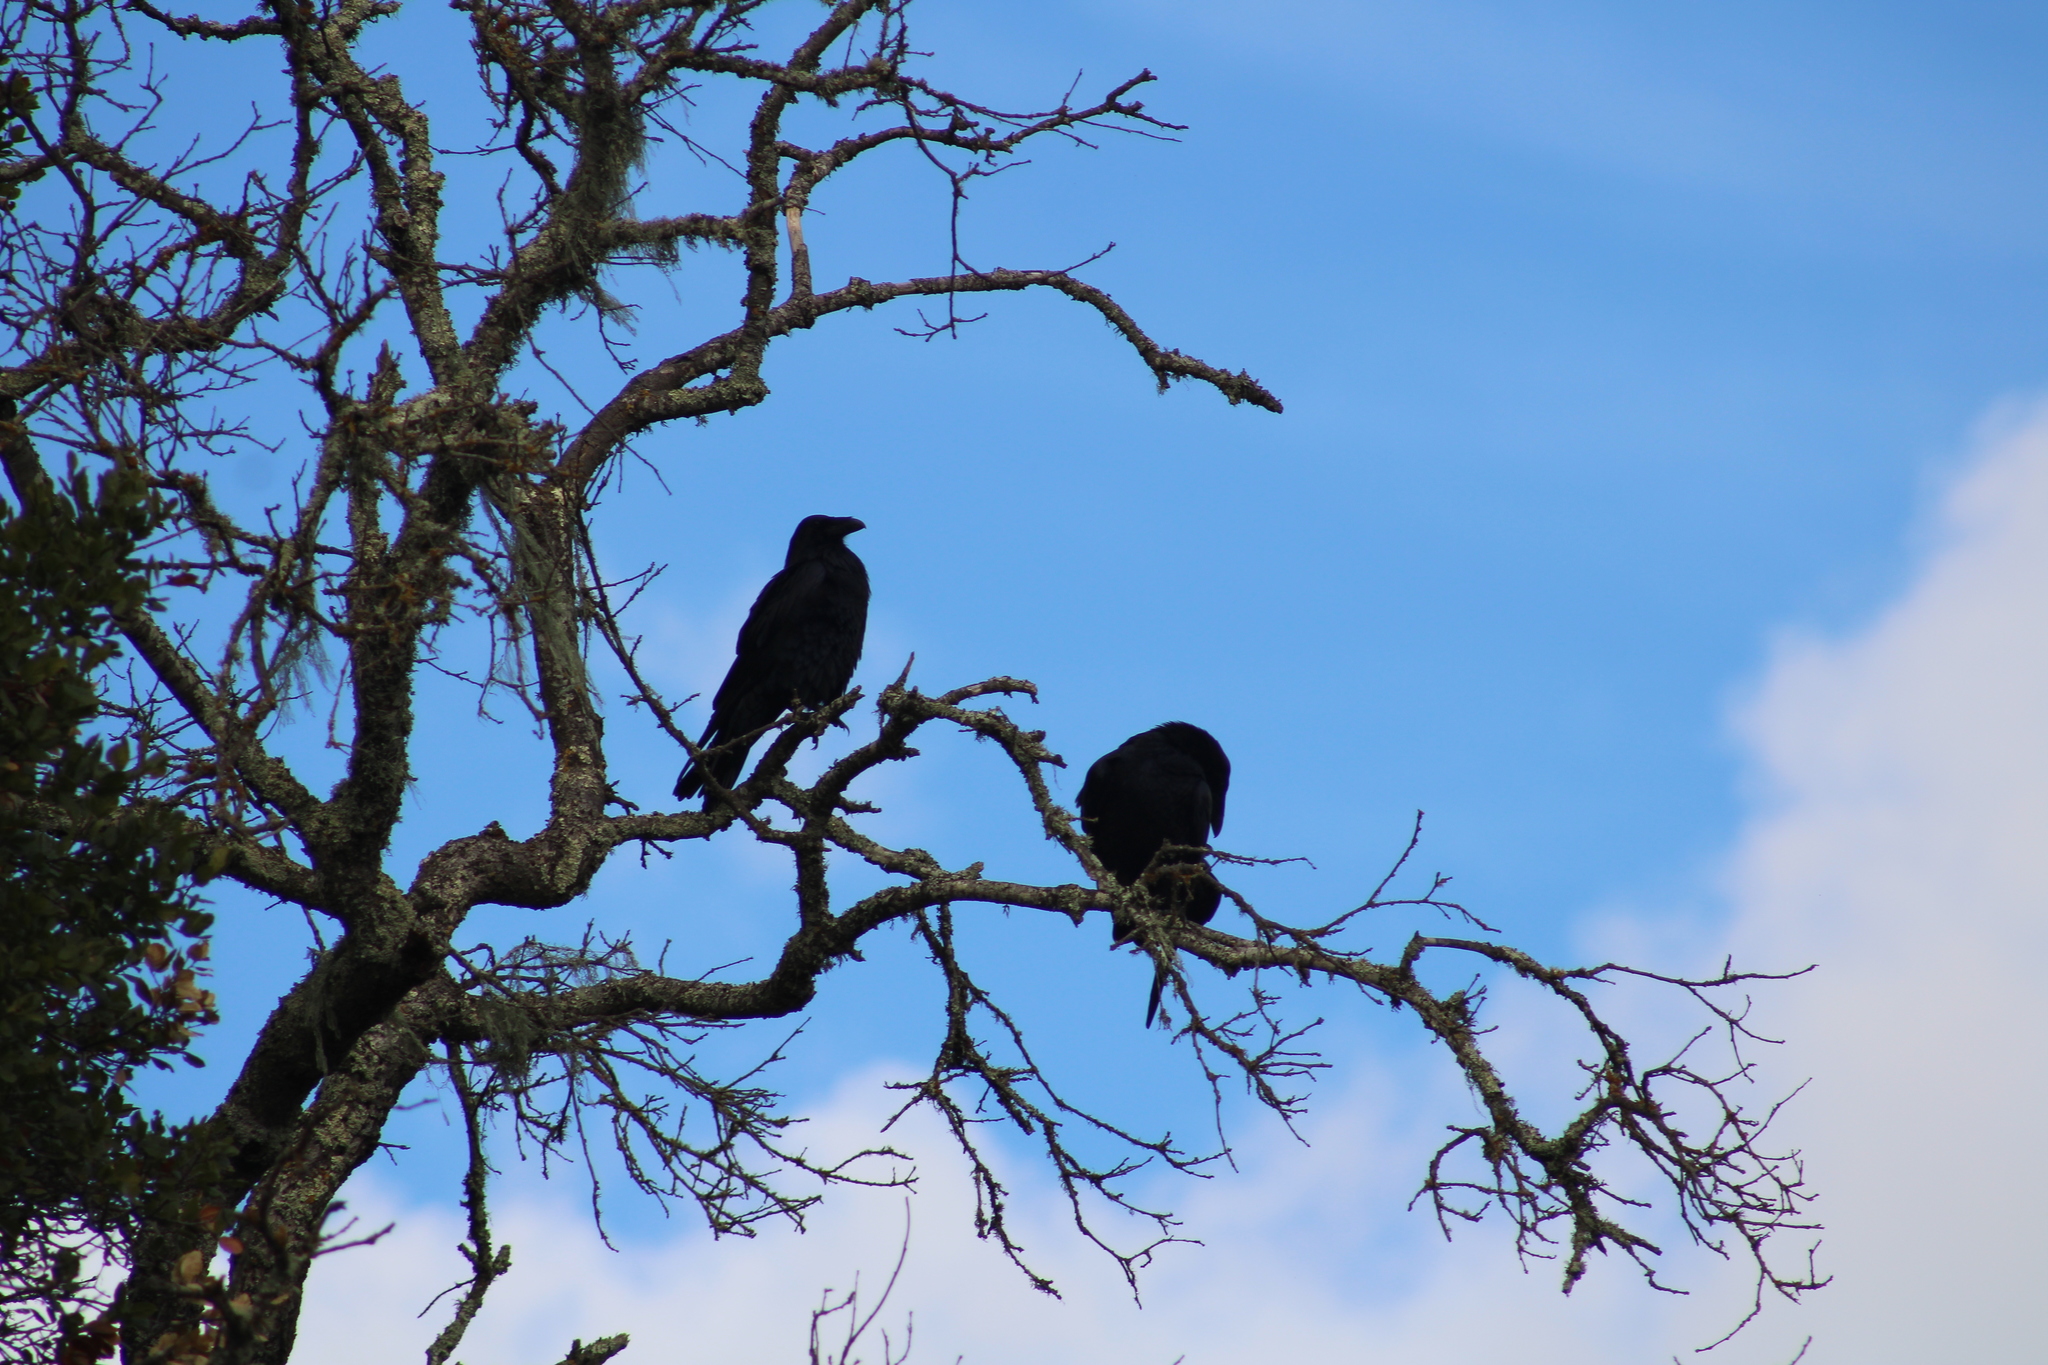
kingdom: Animalia
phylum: Chordata
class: Aves
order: Passeriformes
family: Corvidae
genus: Corvus
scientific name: Corvus corax
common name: Common raven
